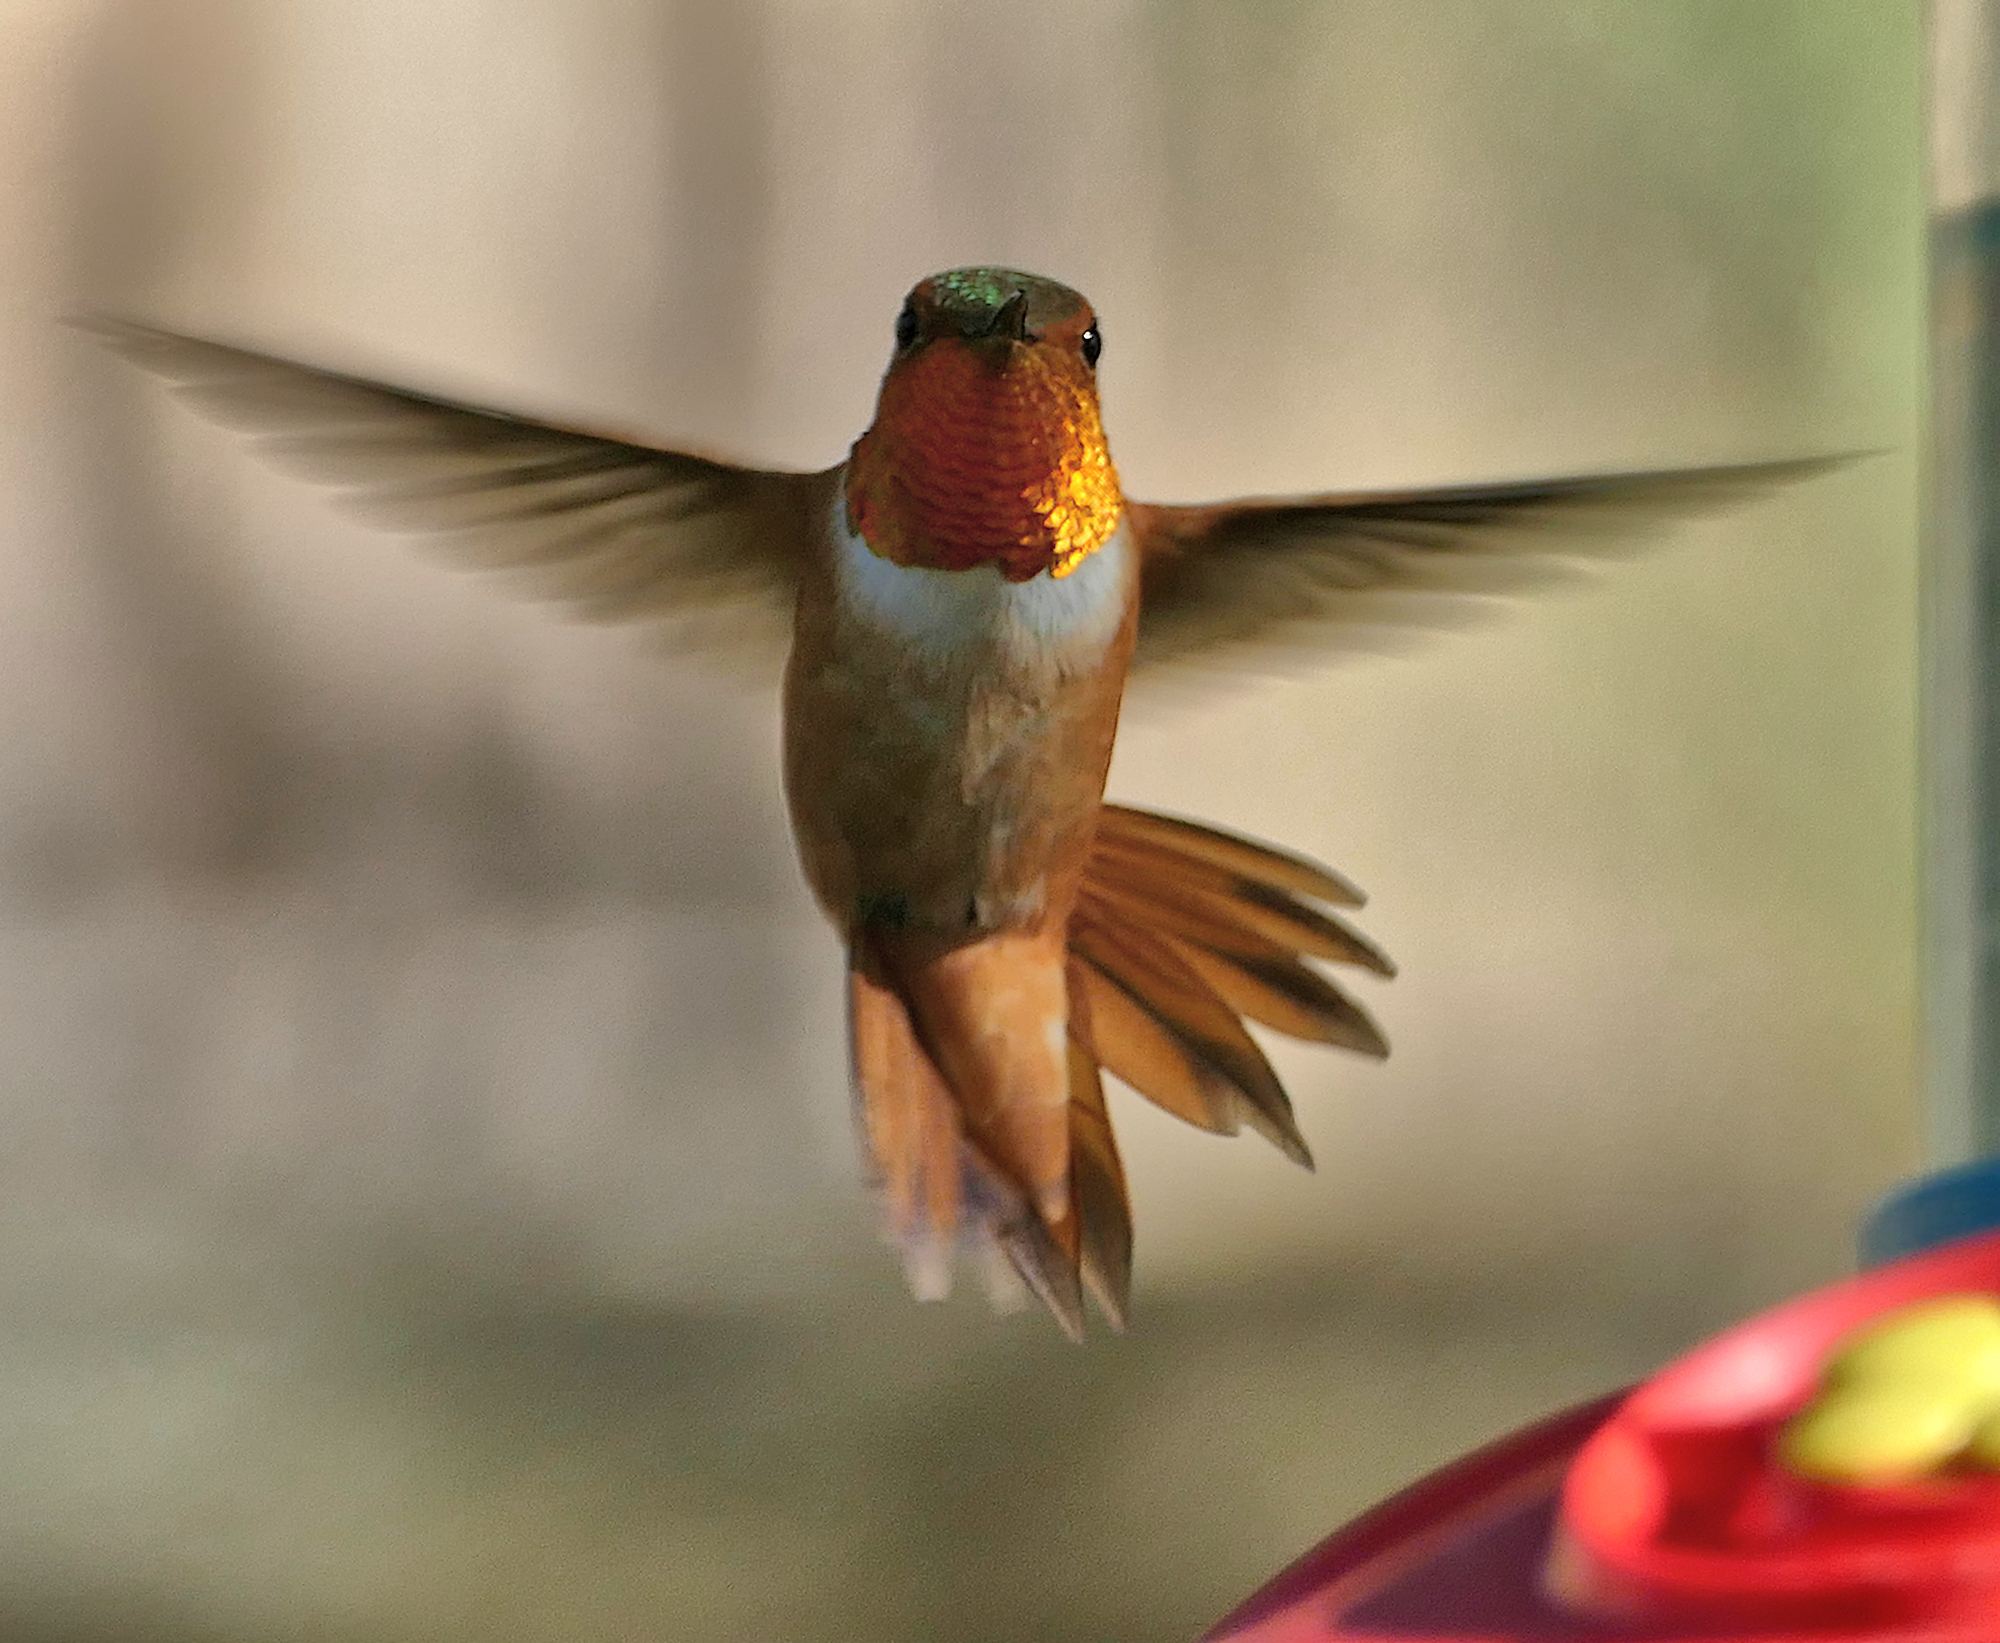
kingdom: Animalia
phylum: Chordata
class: Aves
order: Apodiformes
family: Trochilidae
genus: Selasphorus
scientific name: Selasphorus rufus
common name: Rufous hummingbird
